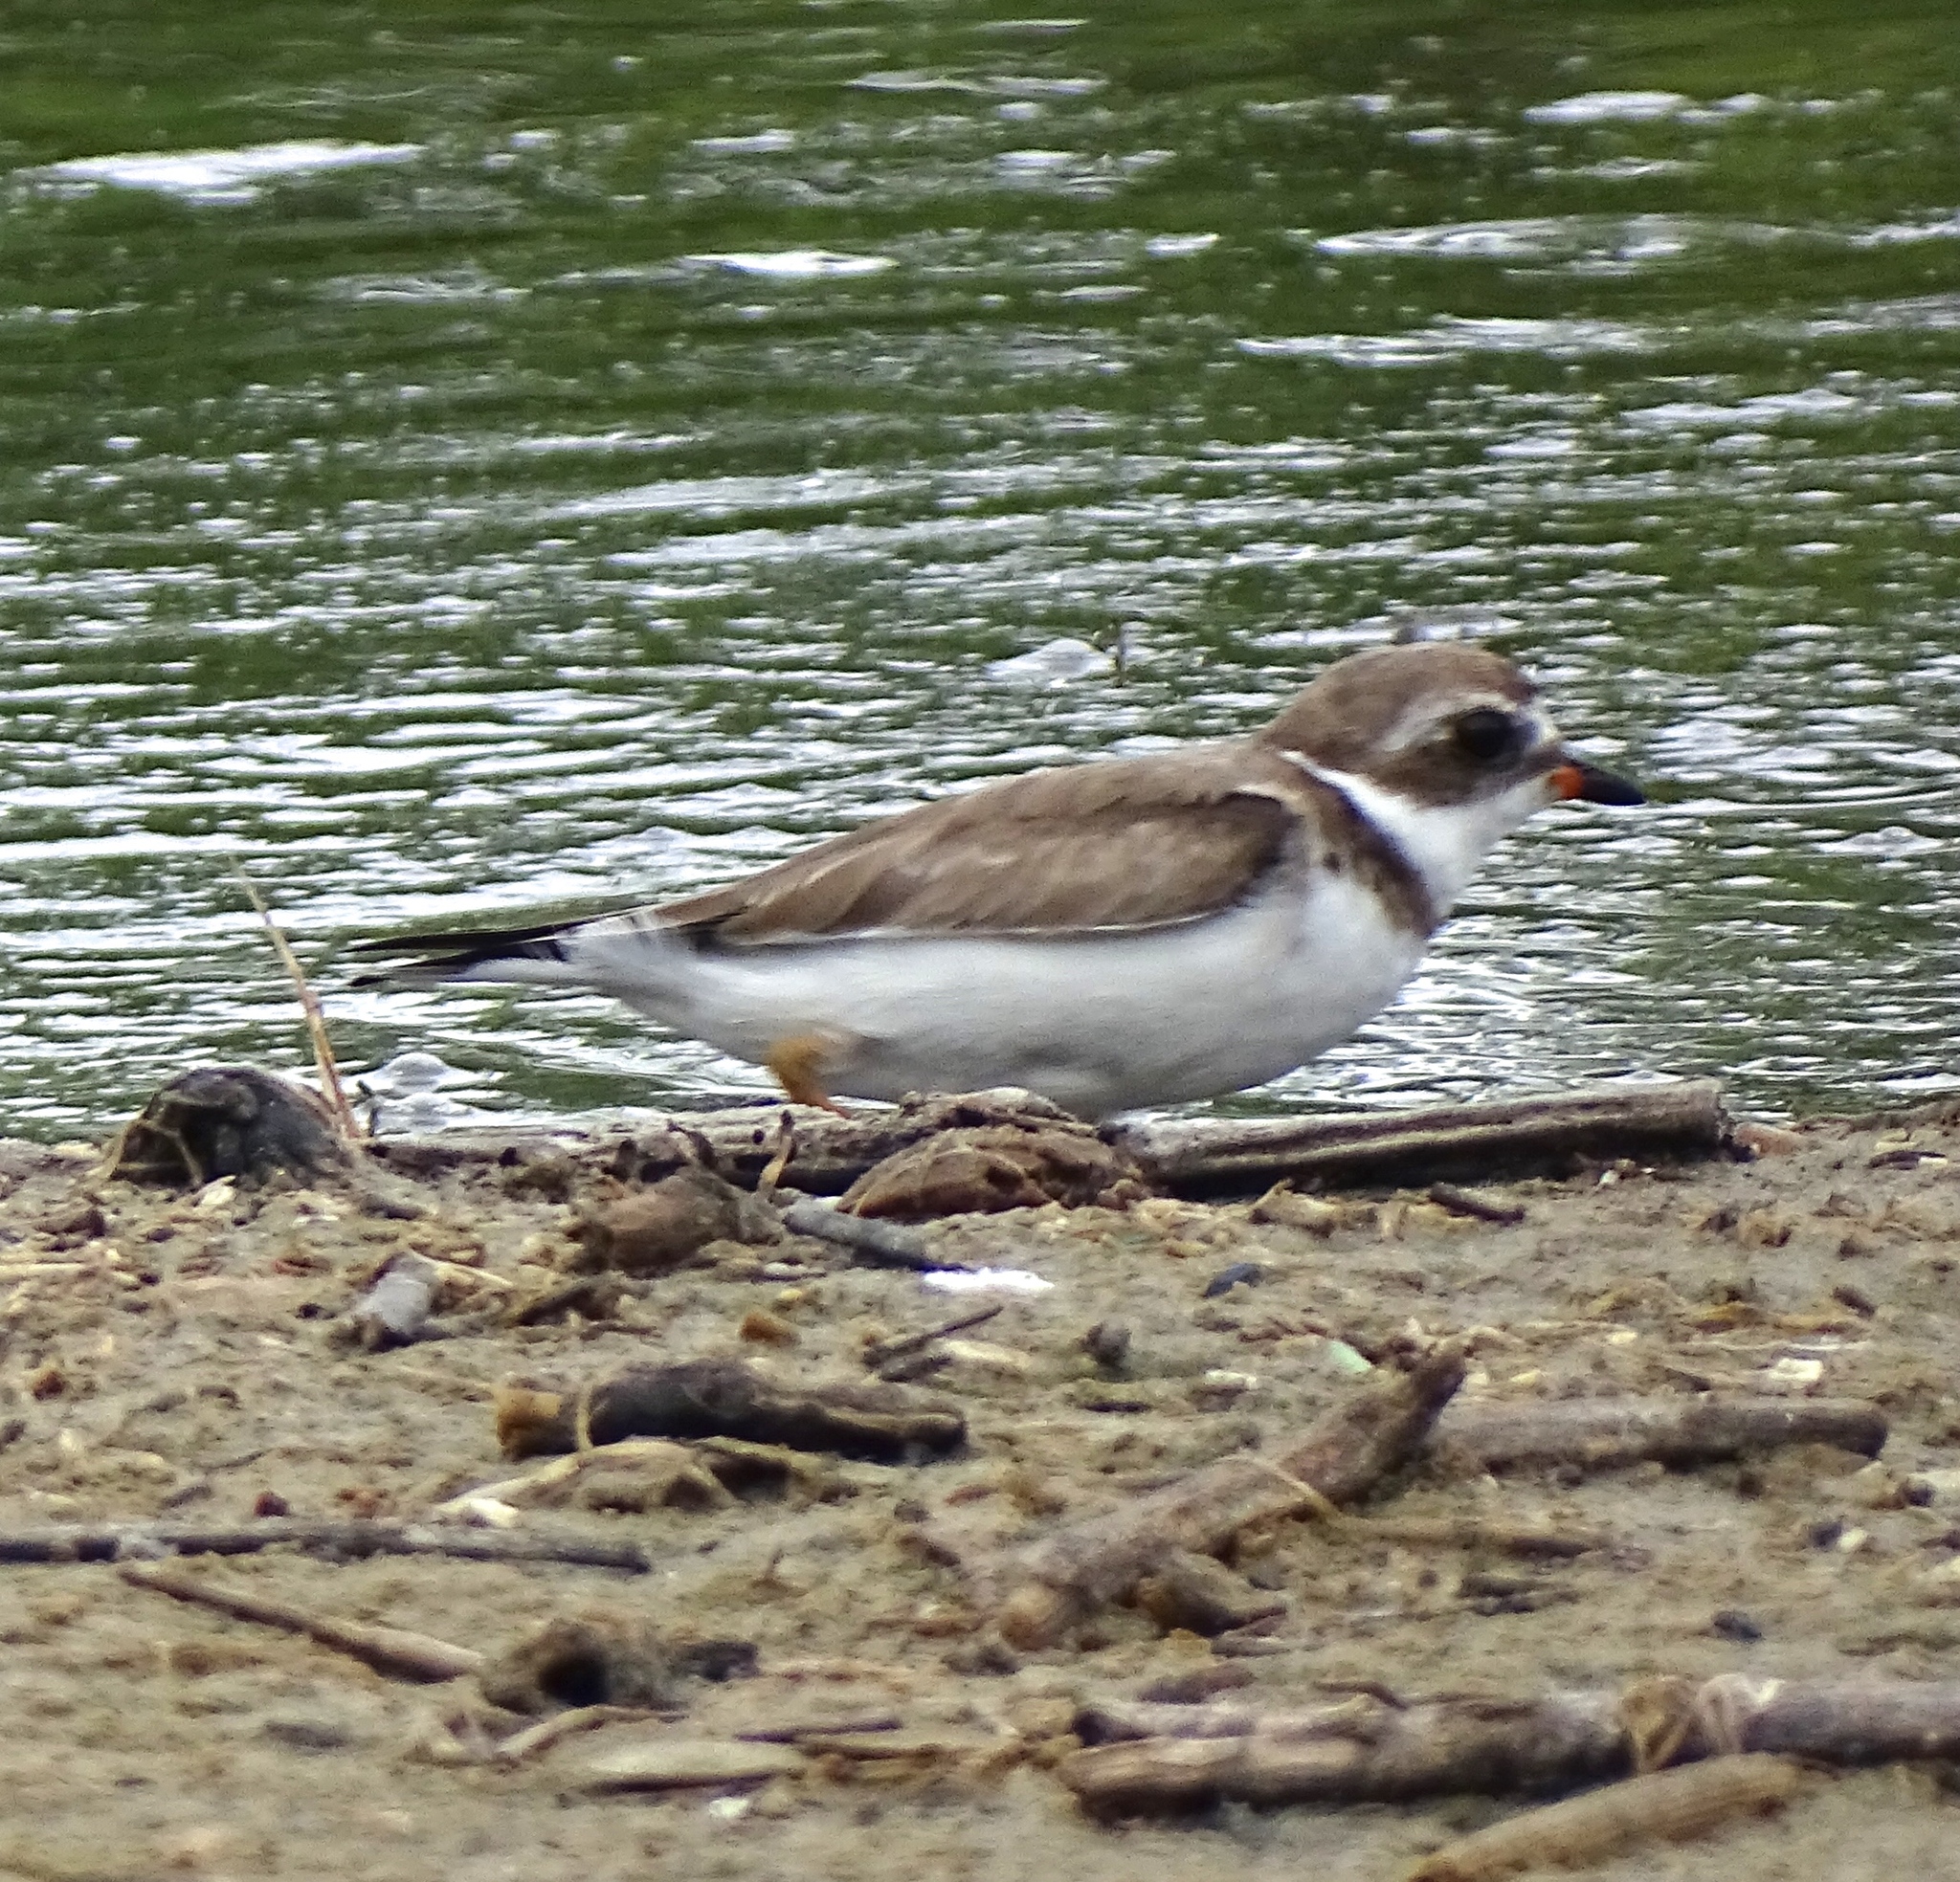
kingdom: Animalia
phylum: Chordata
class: Aves
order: Charadriiformes
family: Charadriidae
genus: Charadrius
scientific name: Charadrius semipalmatus
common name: Semipalmated plover
